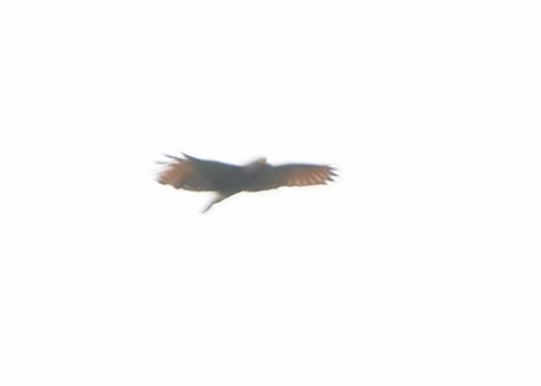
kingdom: Animalia
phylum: Chordata
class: Aves
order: Accipitriformes
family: Accipitridae
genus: Ictinia
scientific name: Ictinia plumbea
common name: Plumbeous kite
